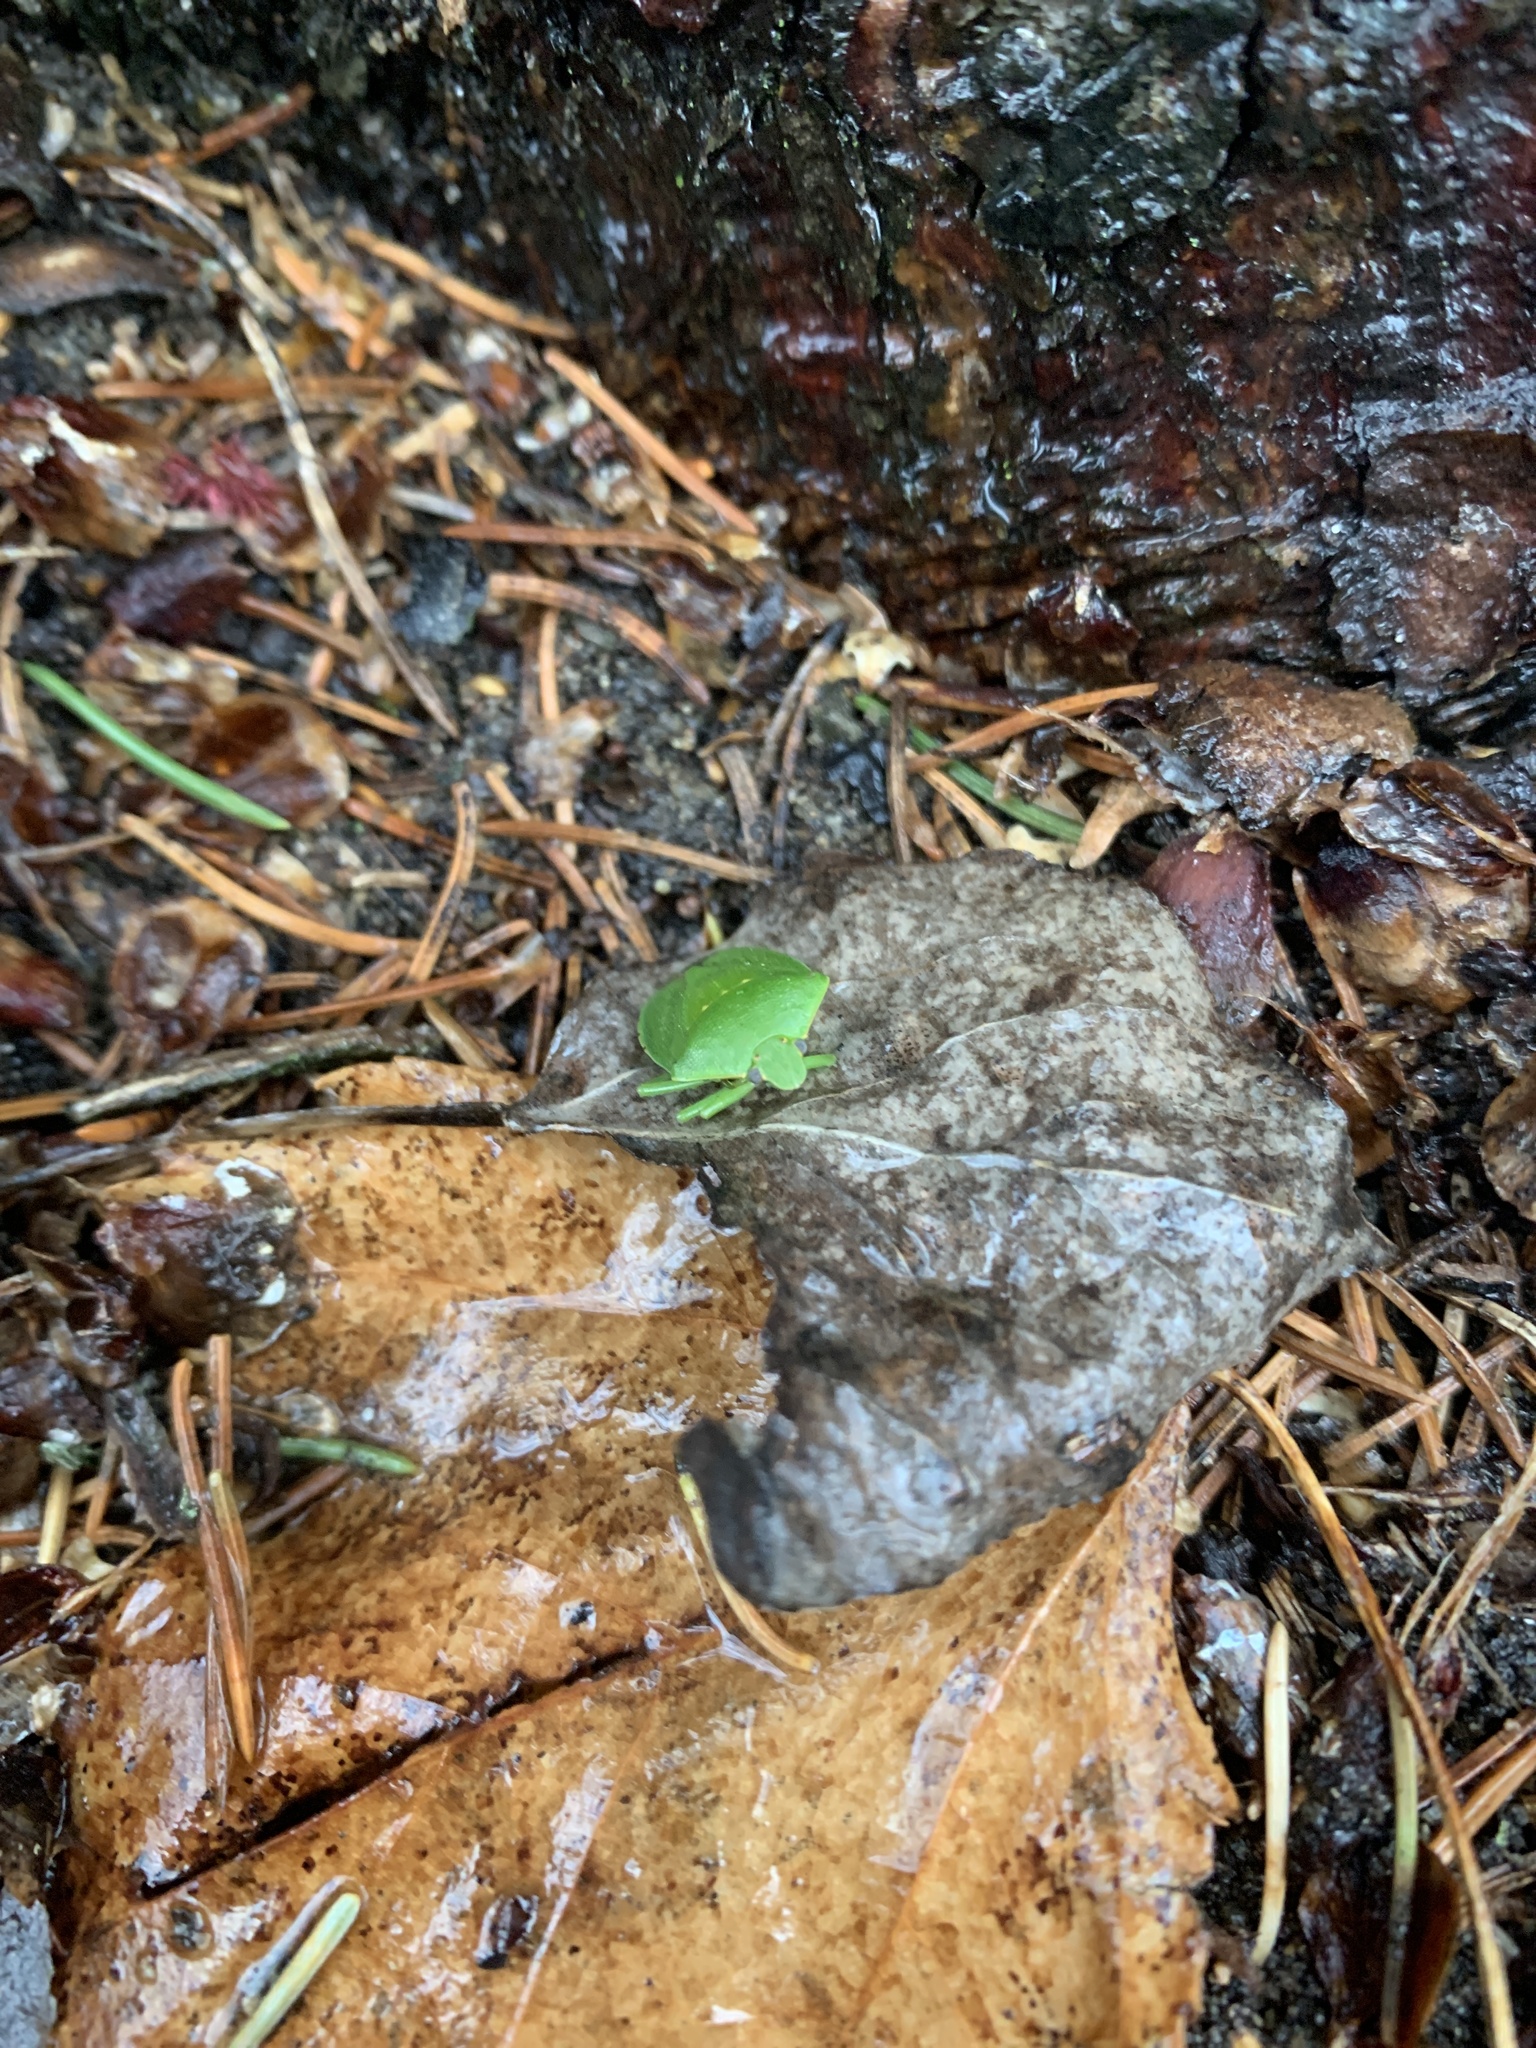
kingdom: Animalia
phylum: Arthropoda
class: Insecta
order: Hemiptera
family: Pentatomidae
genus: Chinavia
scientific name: Chinavia hilaris
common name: Green stink bug
